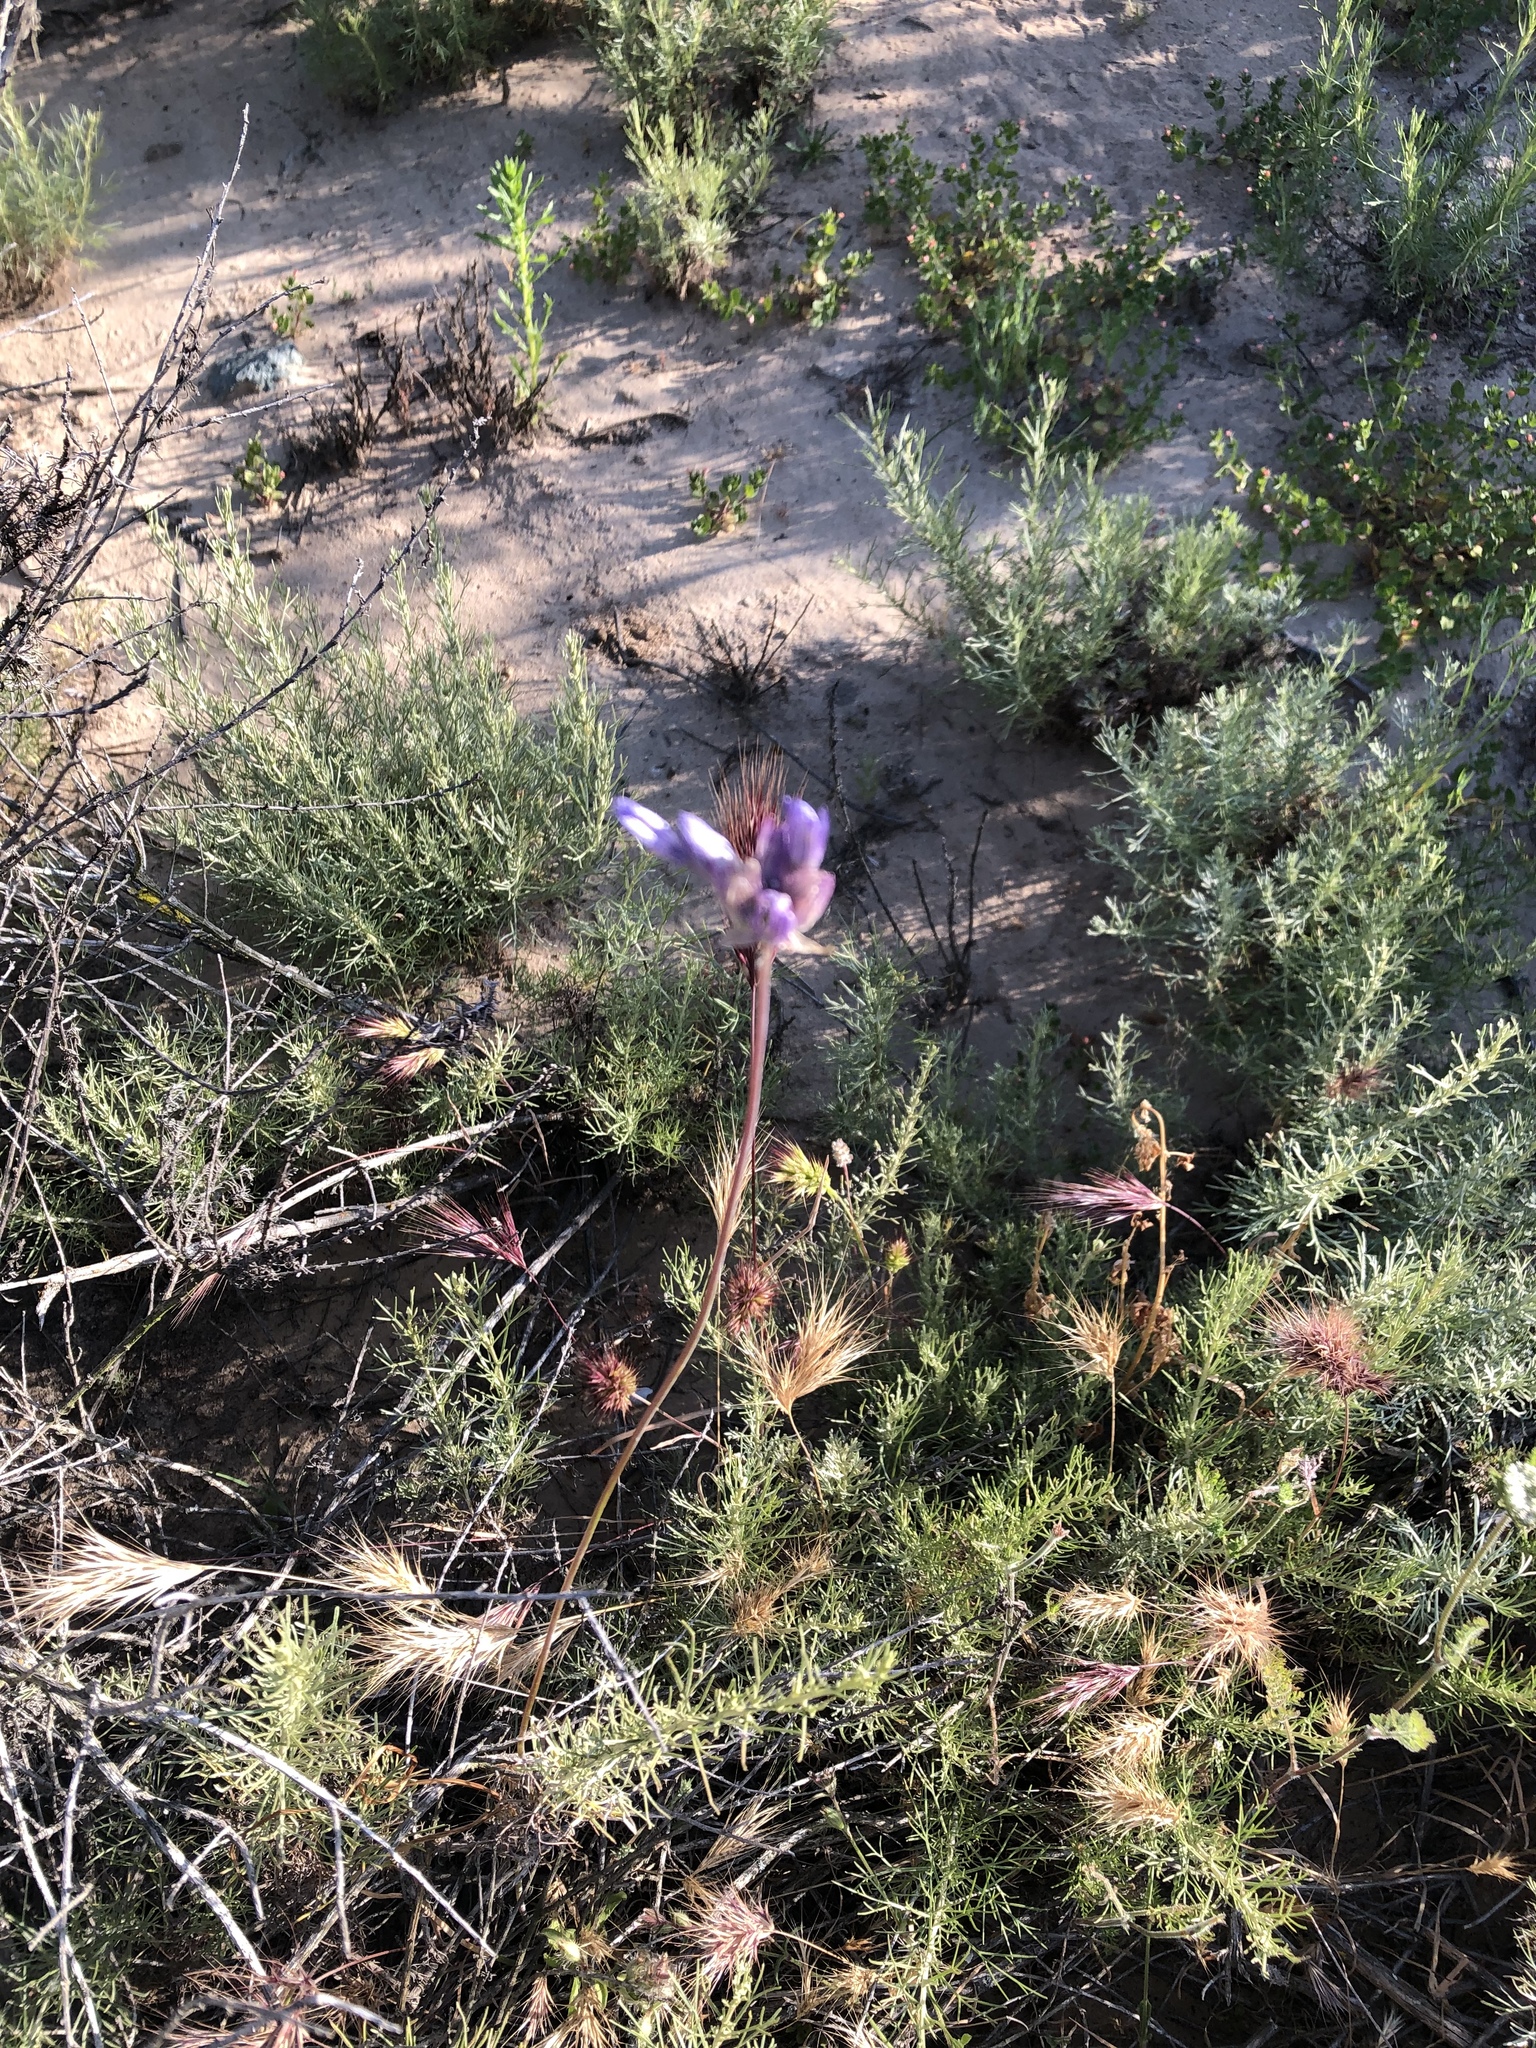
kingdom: Plantae
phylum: Tracheophyta
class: Liliopsida
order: Asparagales
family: Asparagaceae
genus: Dipterostemon
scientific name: Dipterostemon capitatus
